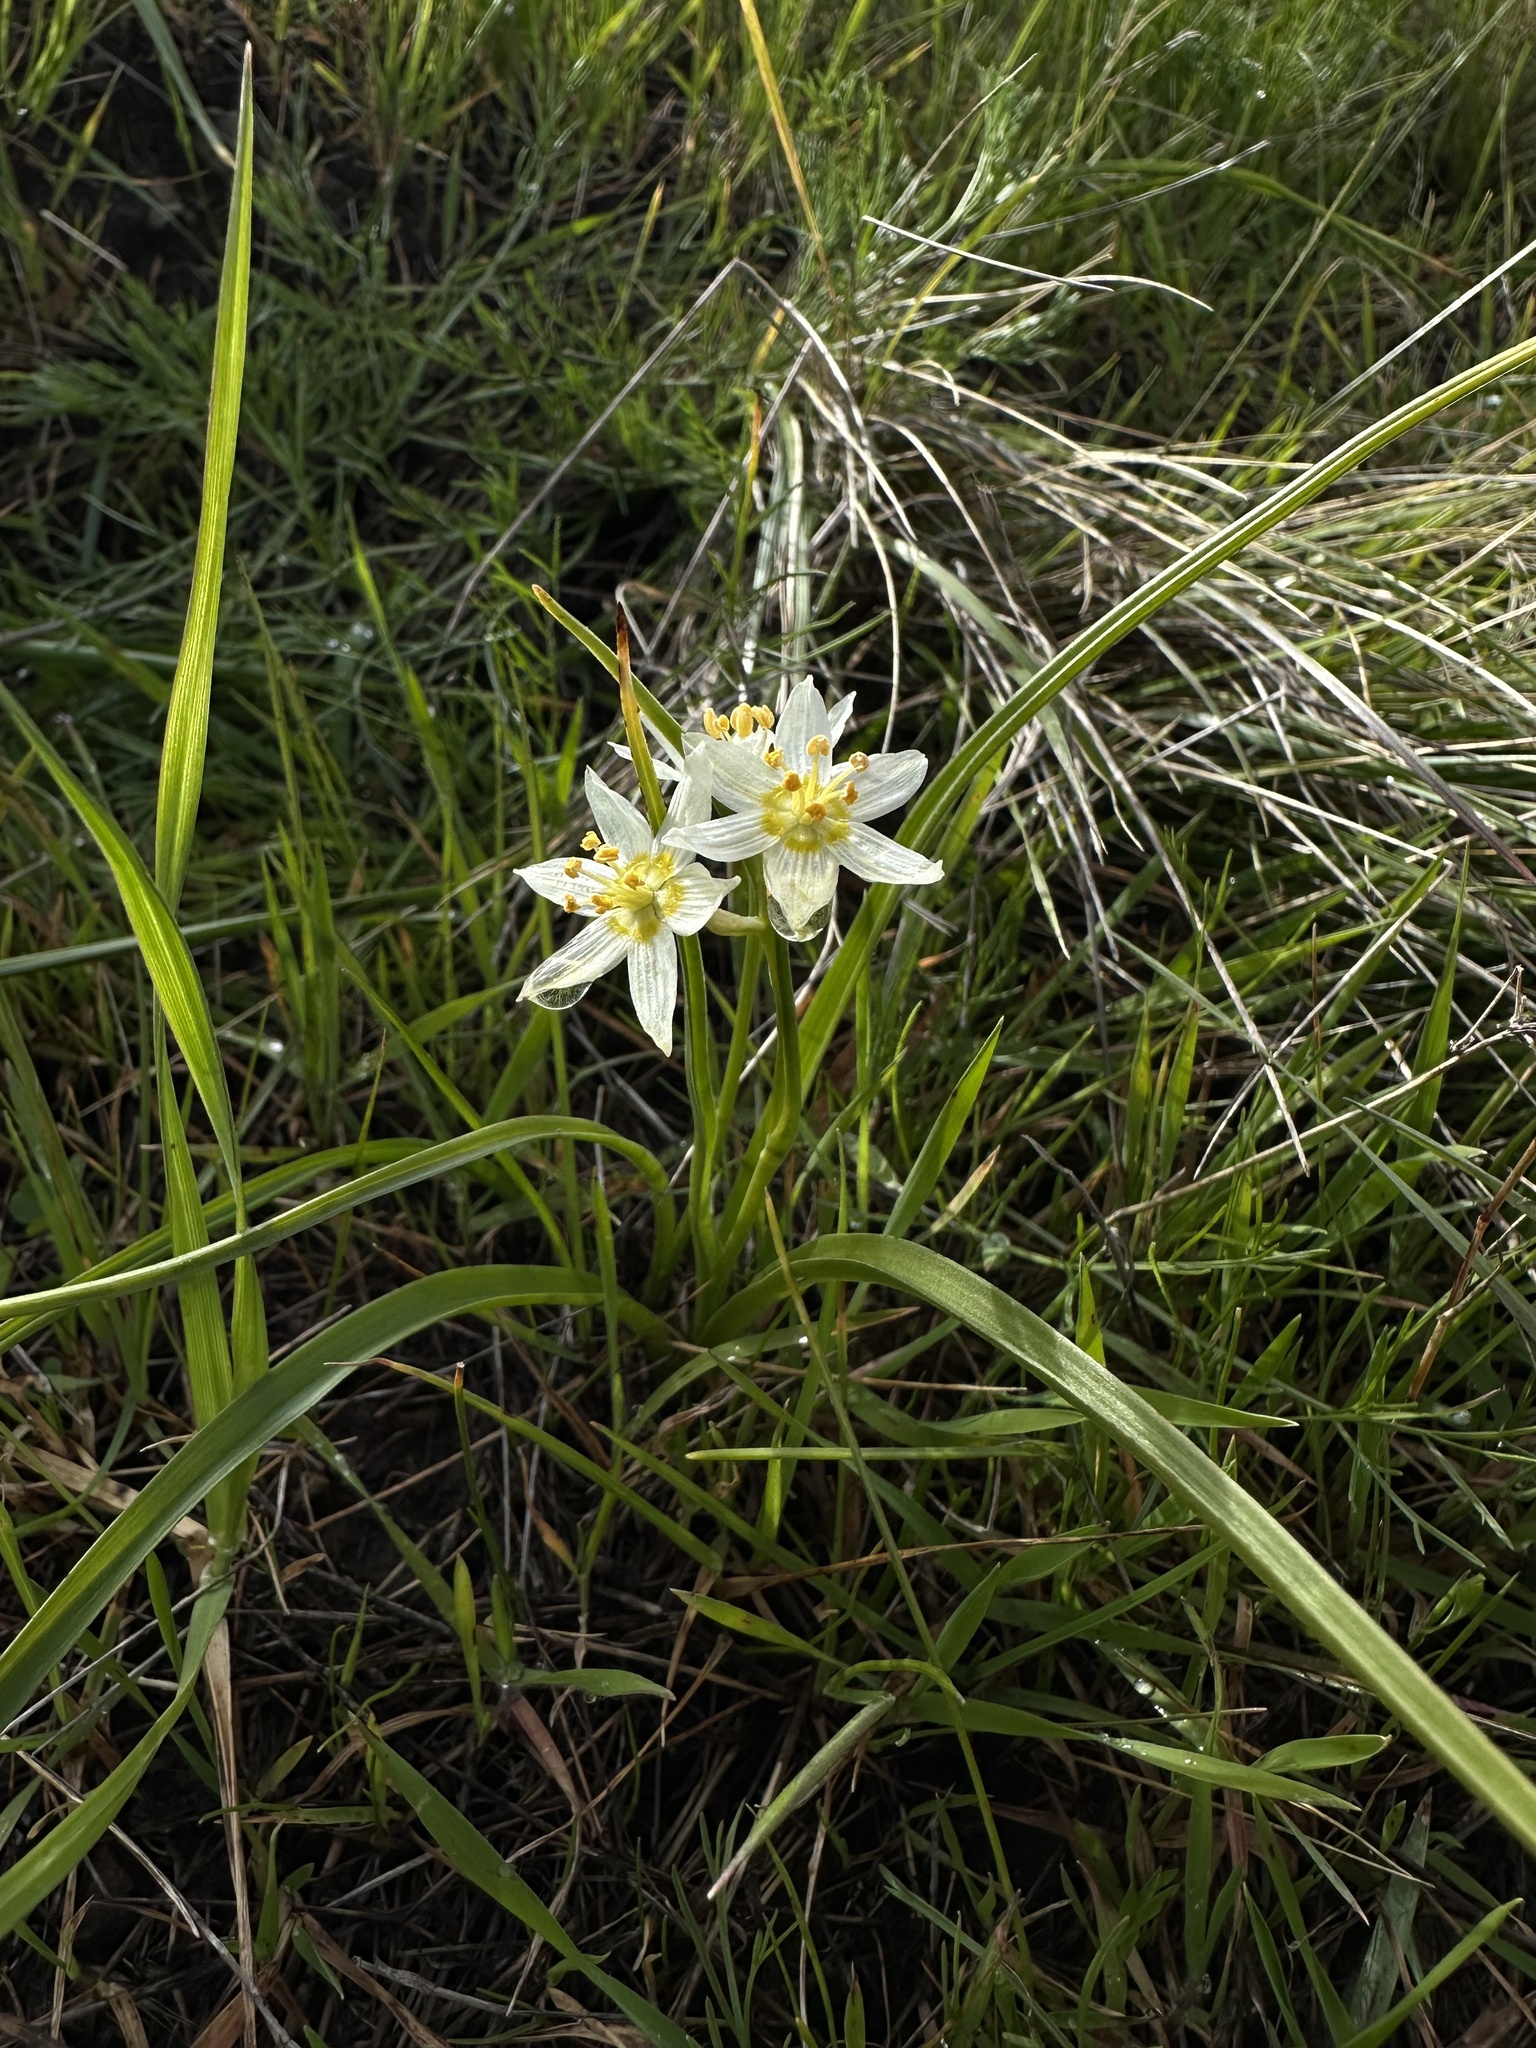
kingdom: Plantae
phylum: Tracheophyta
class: Liliopsida
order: Liliales
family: Melanthiaceae
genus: Toxicoscordion
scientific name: Toxicoscordion fremontii
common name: Fremont's death camas
